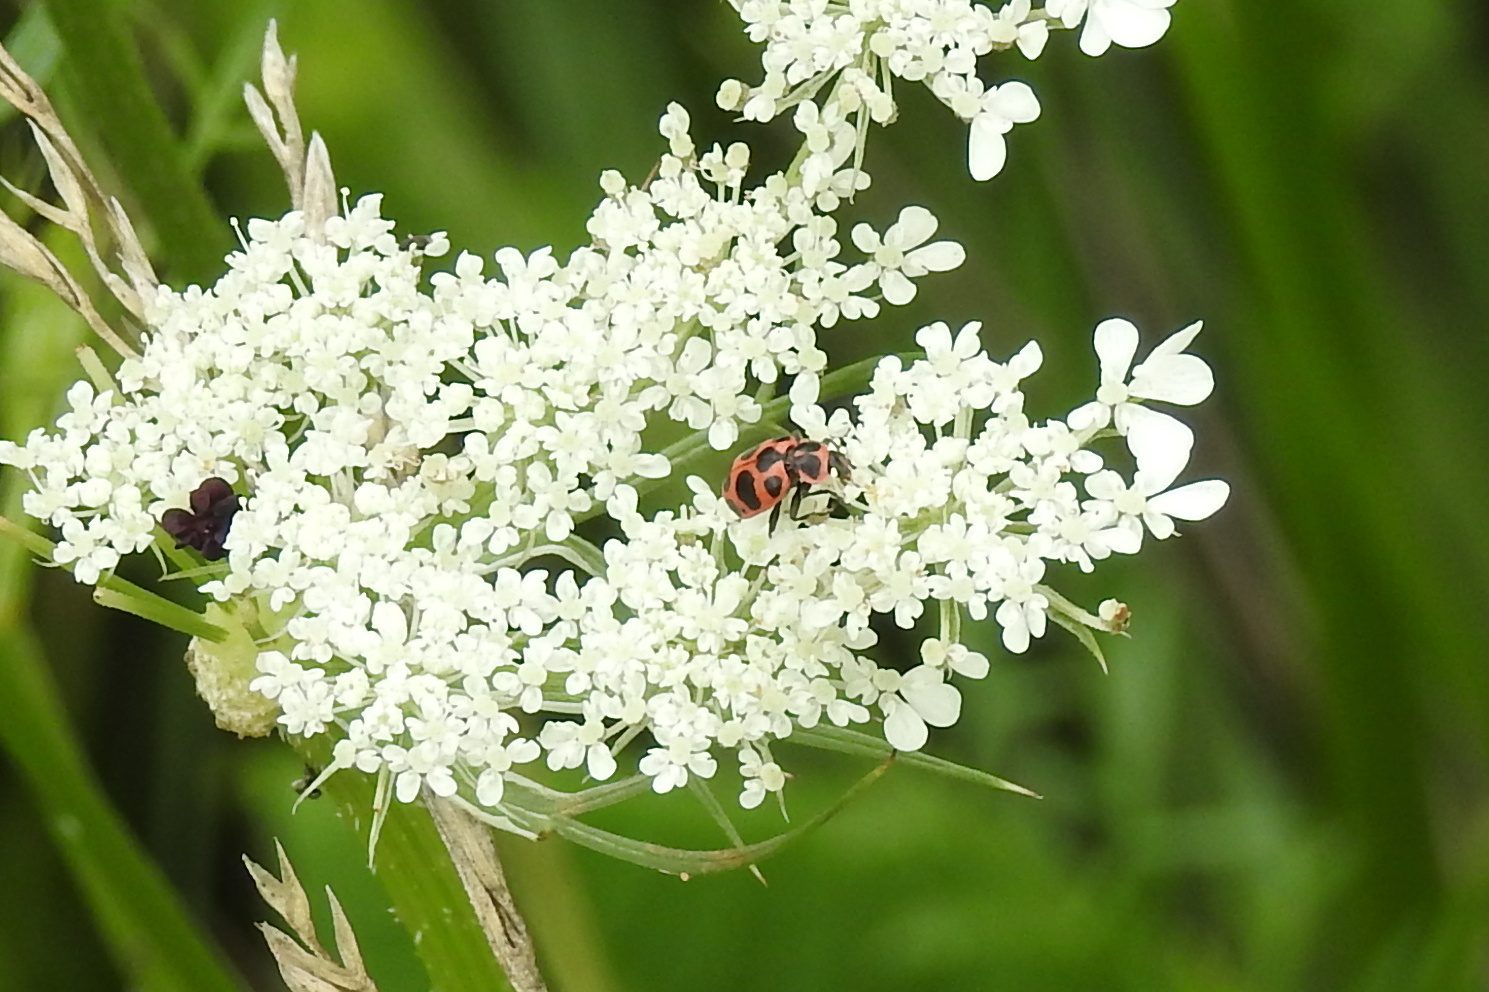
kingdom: Animalia
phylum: Arthropoda
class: Insecta
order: Coleoptera
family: Coccinellidae
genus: Coleomegilla
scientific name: Coleomegilla maculata
